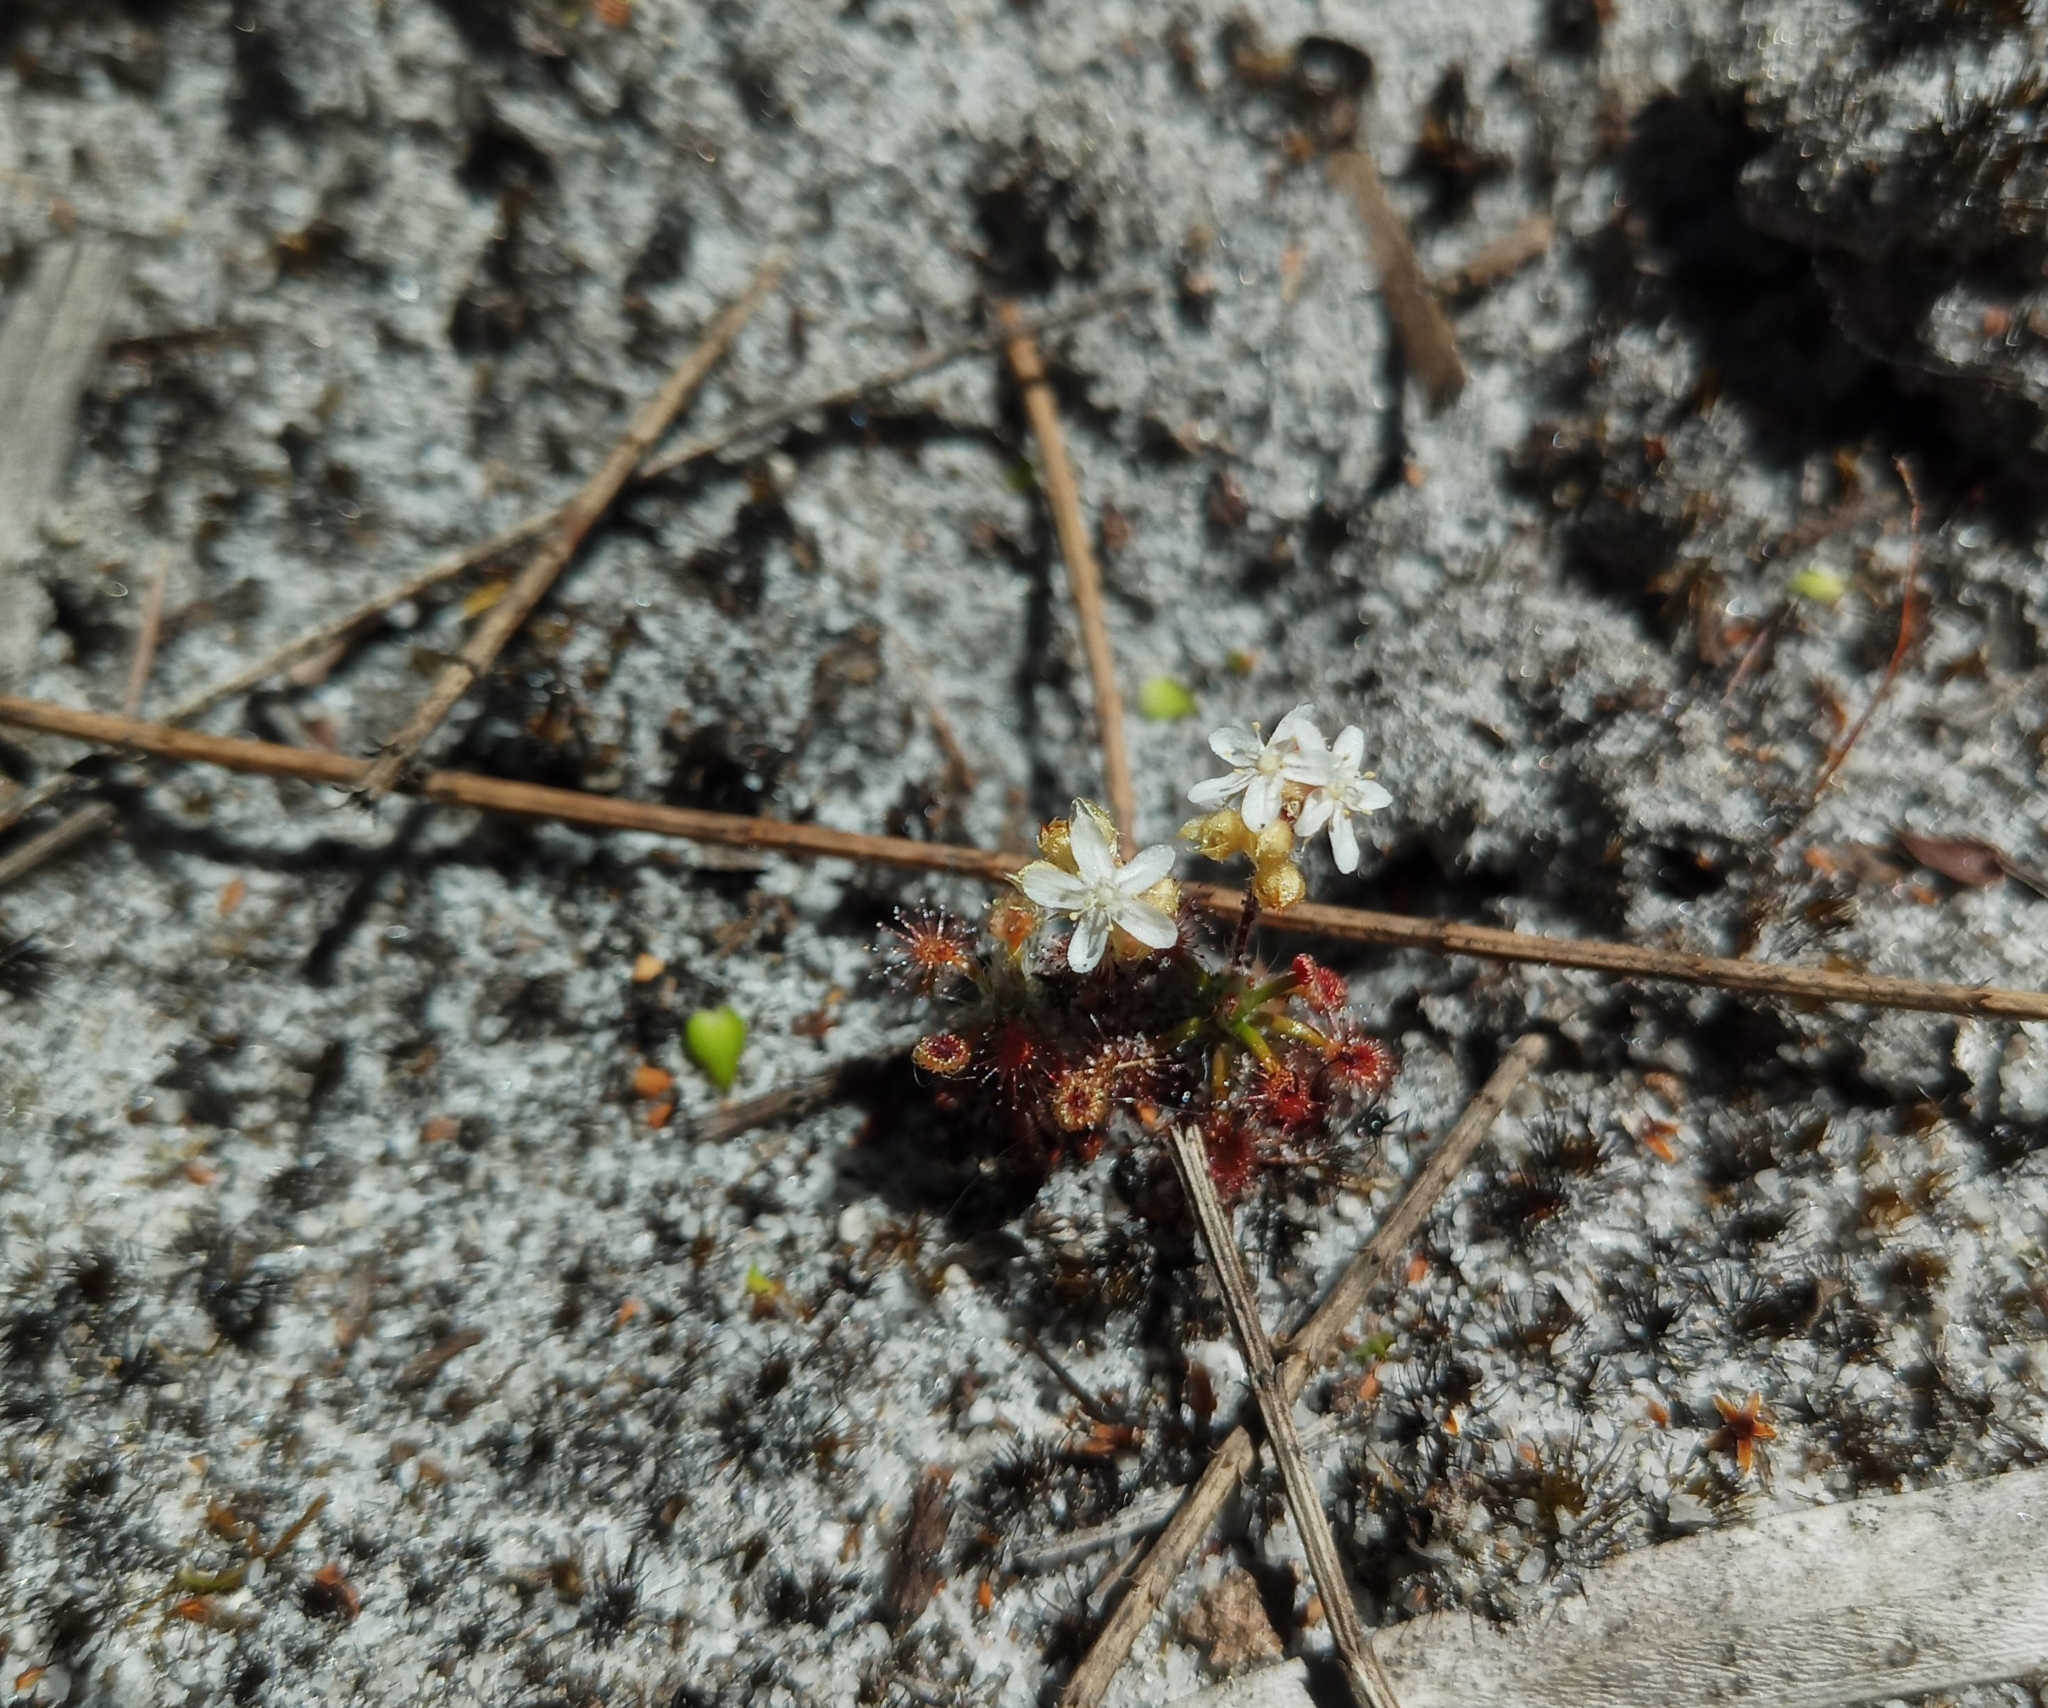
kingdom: Plantae
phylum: Tracheophyta
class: Magnoliopsida
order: Caryophyllales
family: Droseraceae
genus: Drosera
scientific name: Drosera paleacea
